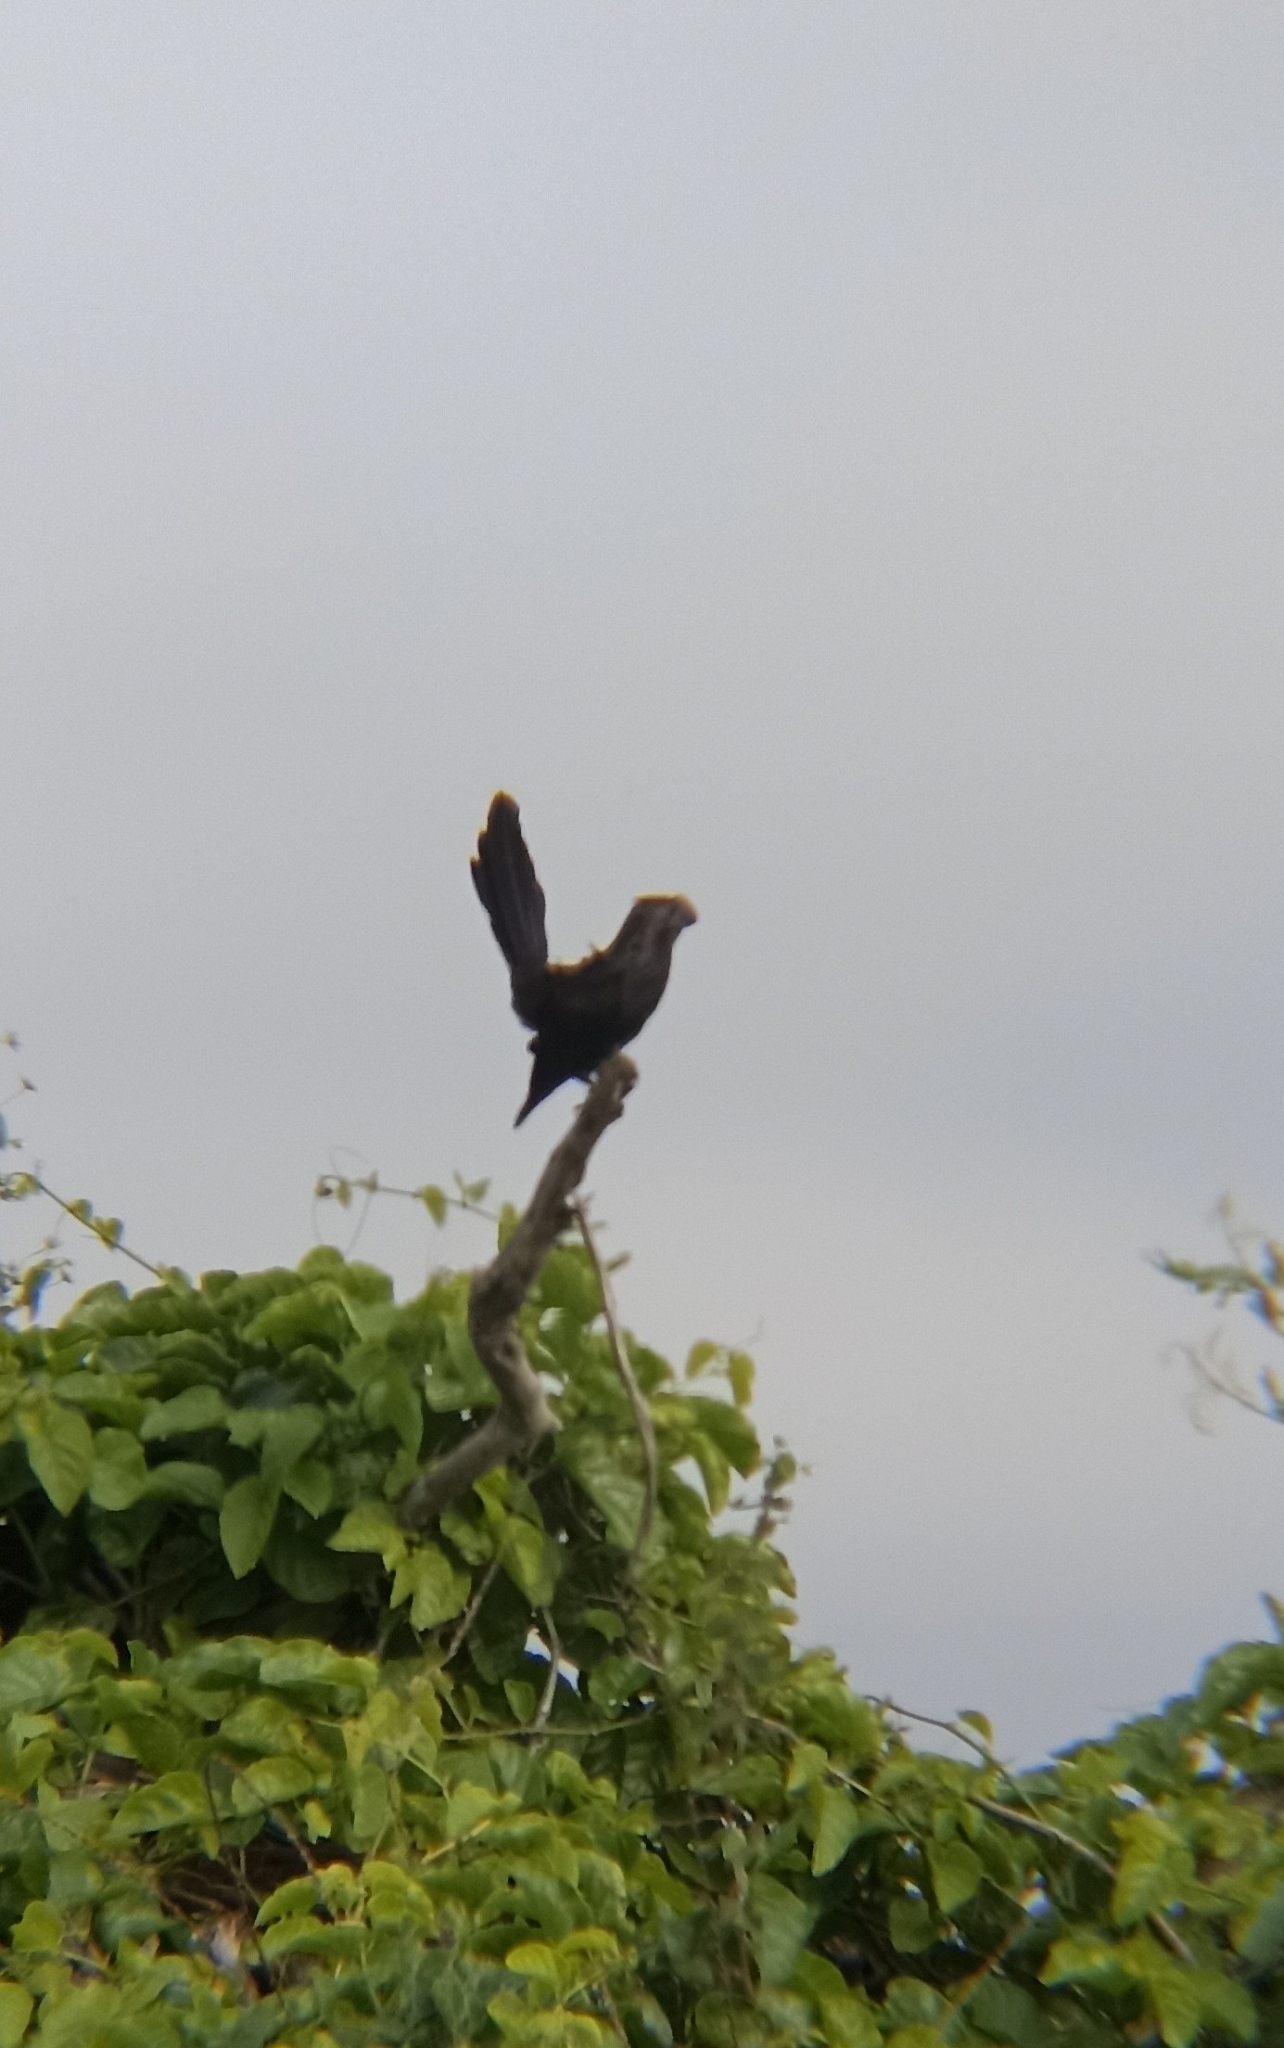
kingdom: Animalia
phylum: Chordata
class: Aves
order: Cuculiformes
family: Cuculidae
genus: Crotophaga
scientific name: Crotophaga ani
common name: Smooth-billed ani
